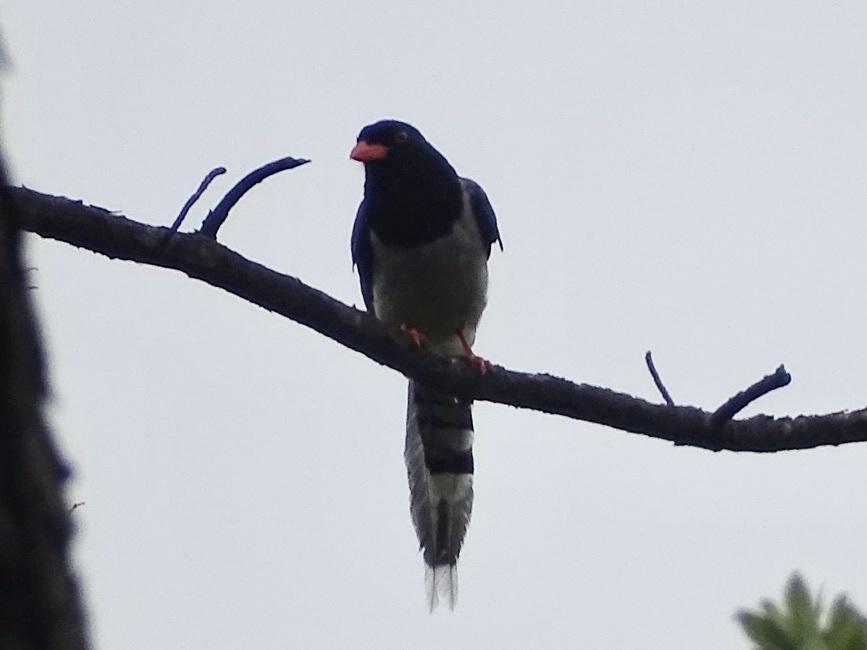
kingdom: Animalia
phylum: Chordata
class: Aves
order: Passeriformes
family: Corvidae
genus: Urocissa
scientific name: Urocissa erythroryncha
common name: Red-billed blue magpie
